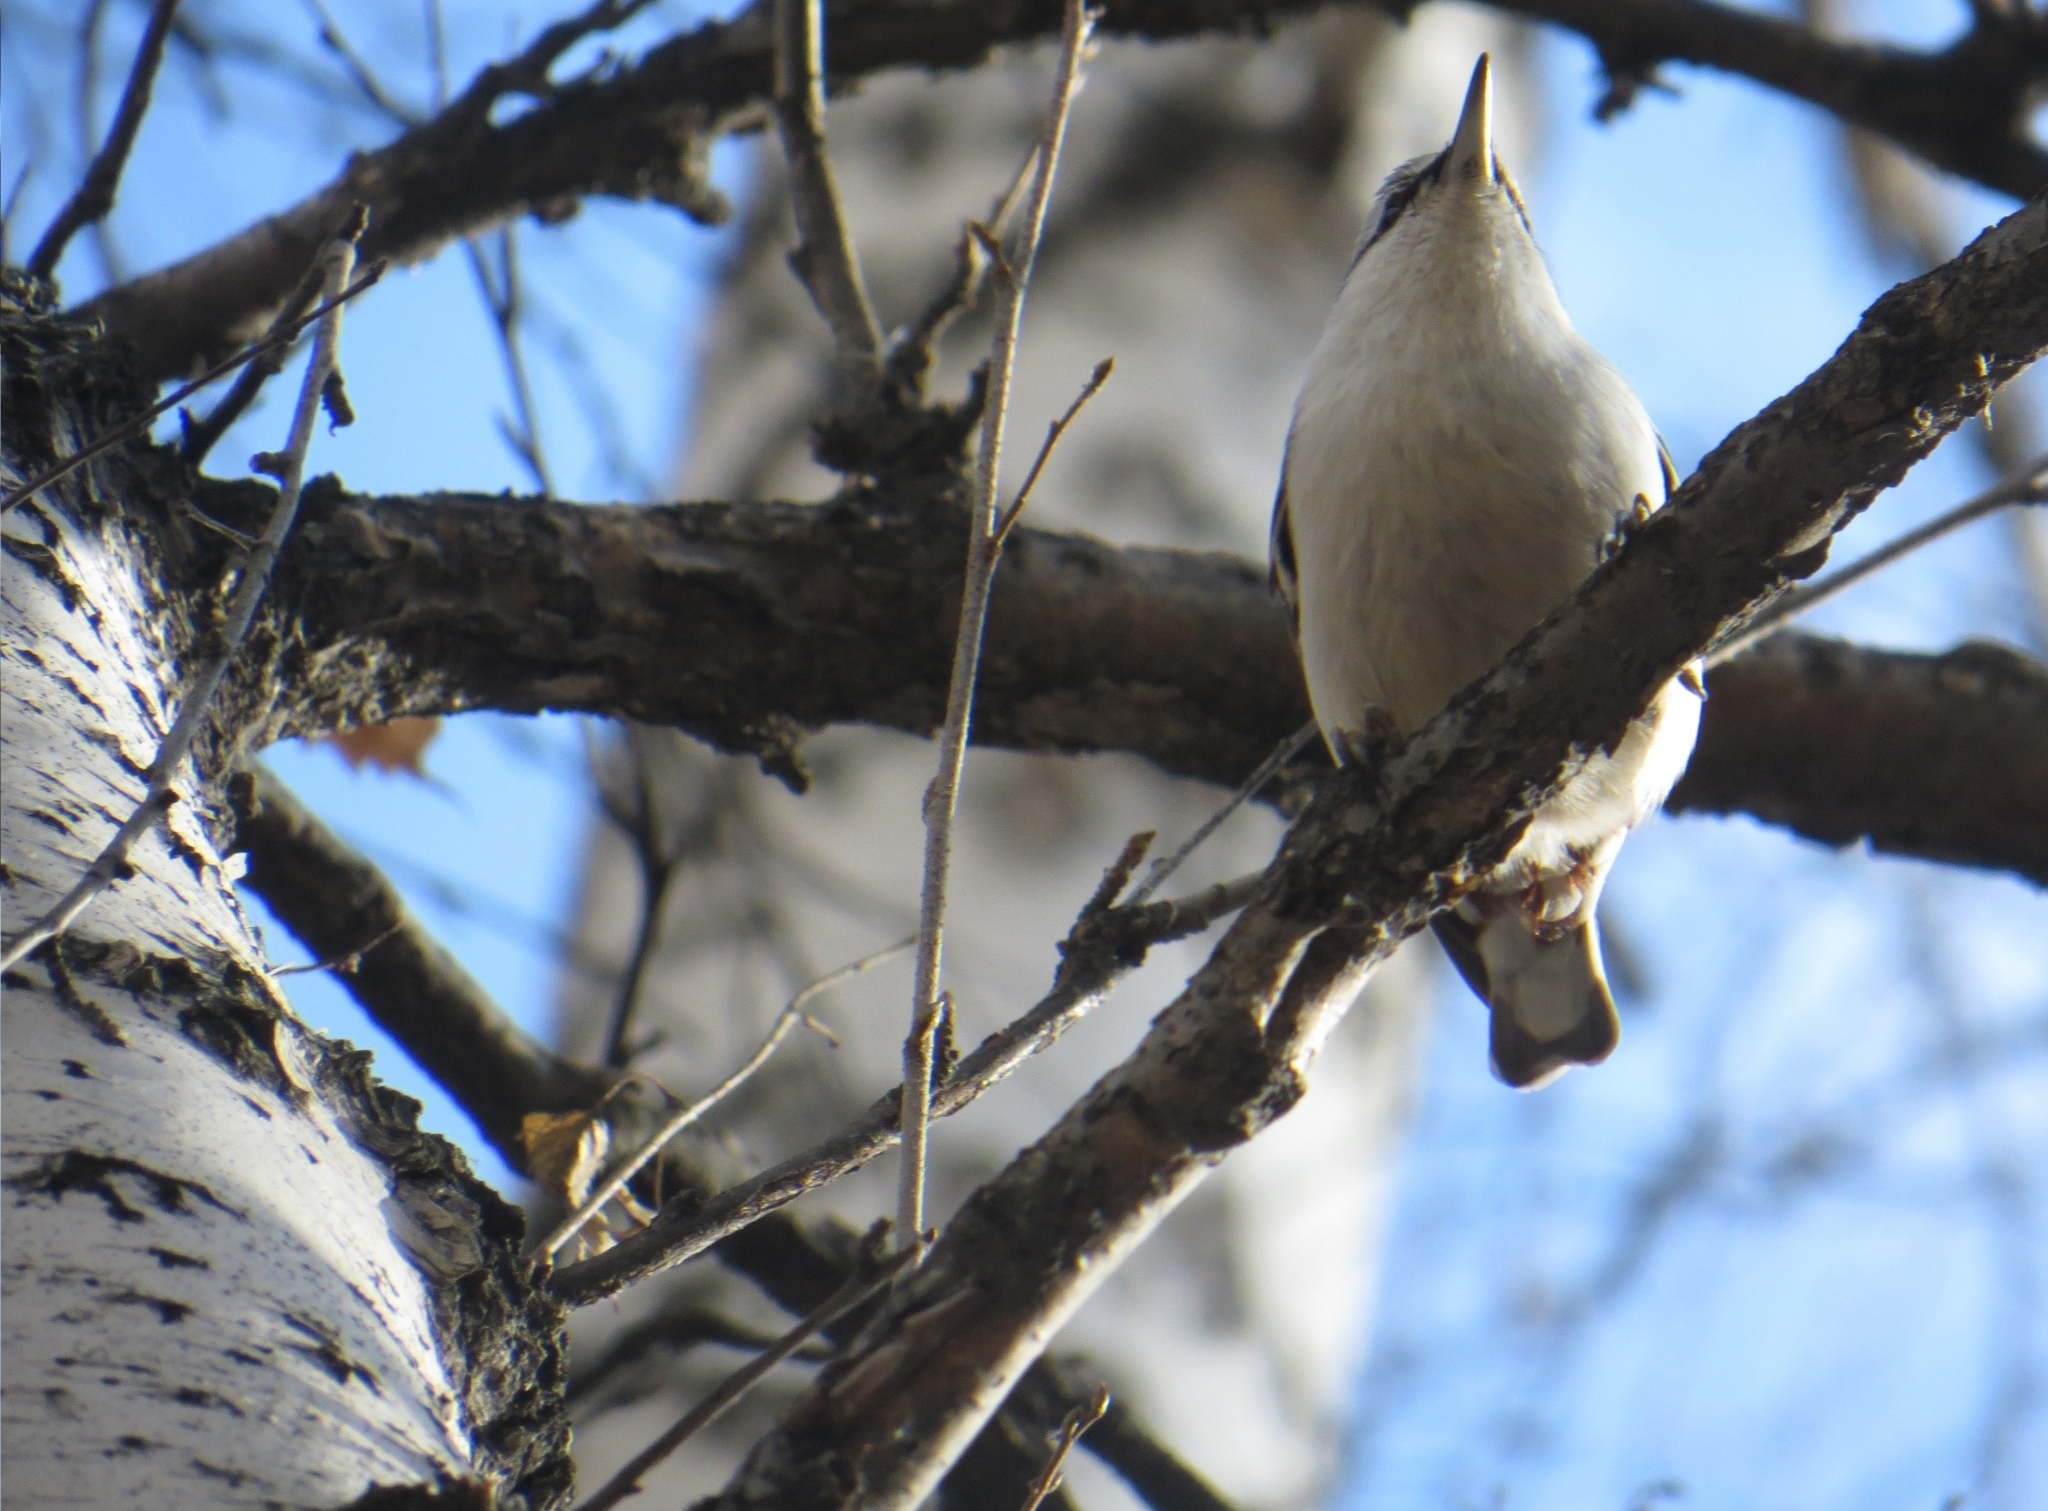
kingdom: Animalia
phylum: Chordata
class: Aves
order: Passeriformes
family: Sittidae
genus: Sitta
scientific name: Sitta europaea
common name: Eurasian nuthatch
